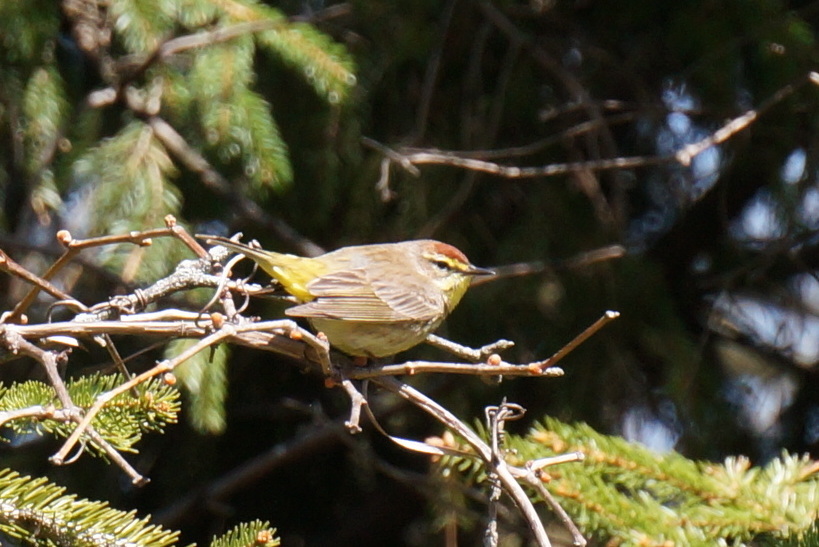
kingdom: Animalia
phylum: Chordata
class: Aves
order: Passeriformes
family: Parulidae
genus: Setophaga
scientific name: Setophaga palmarum
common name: Palm warbler
